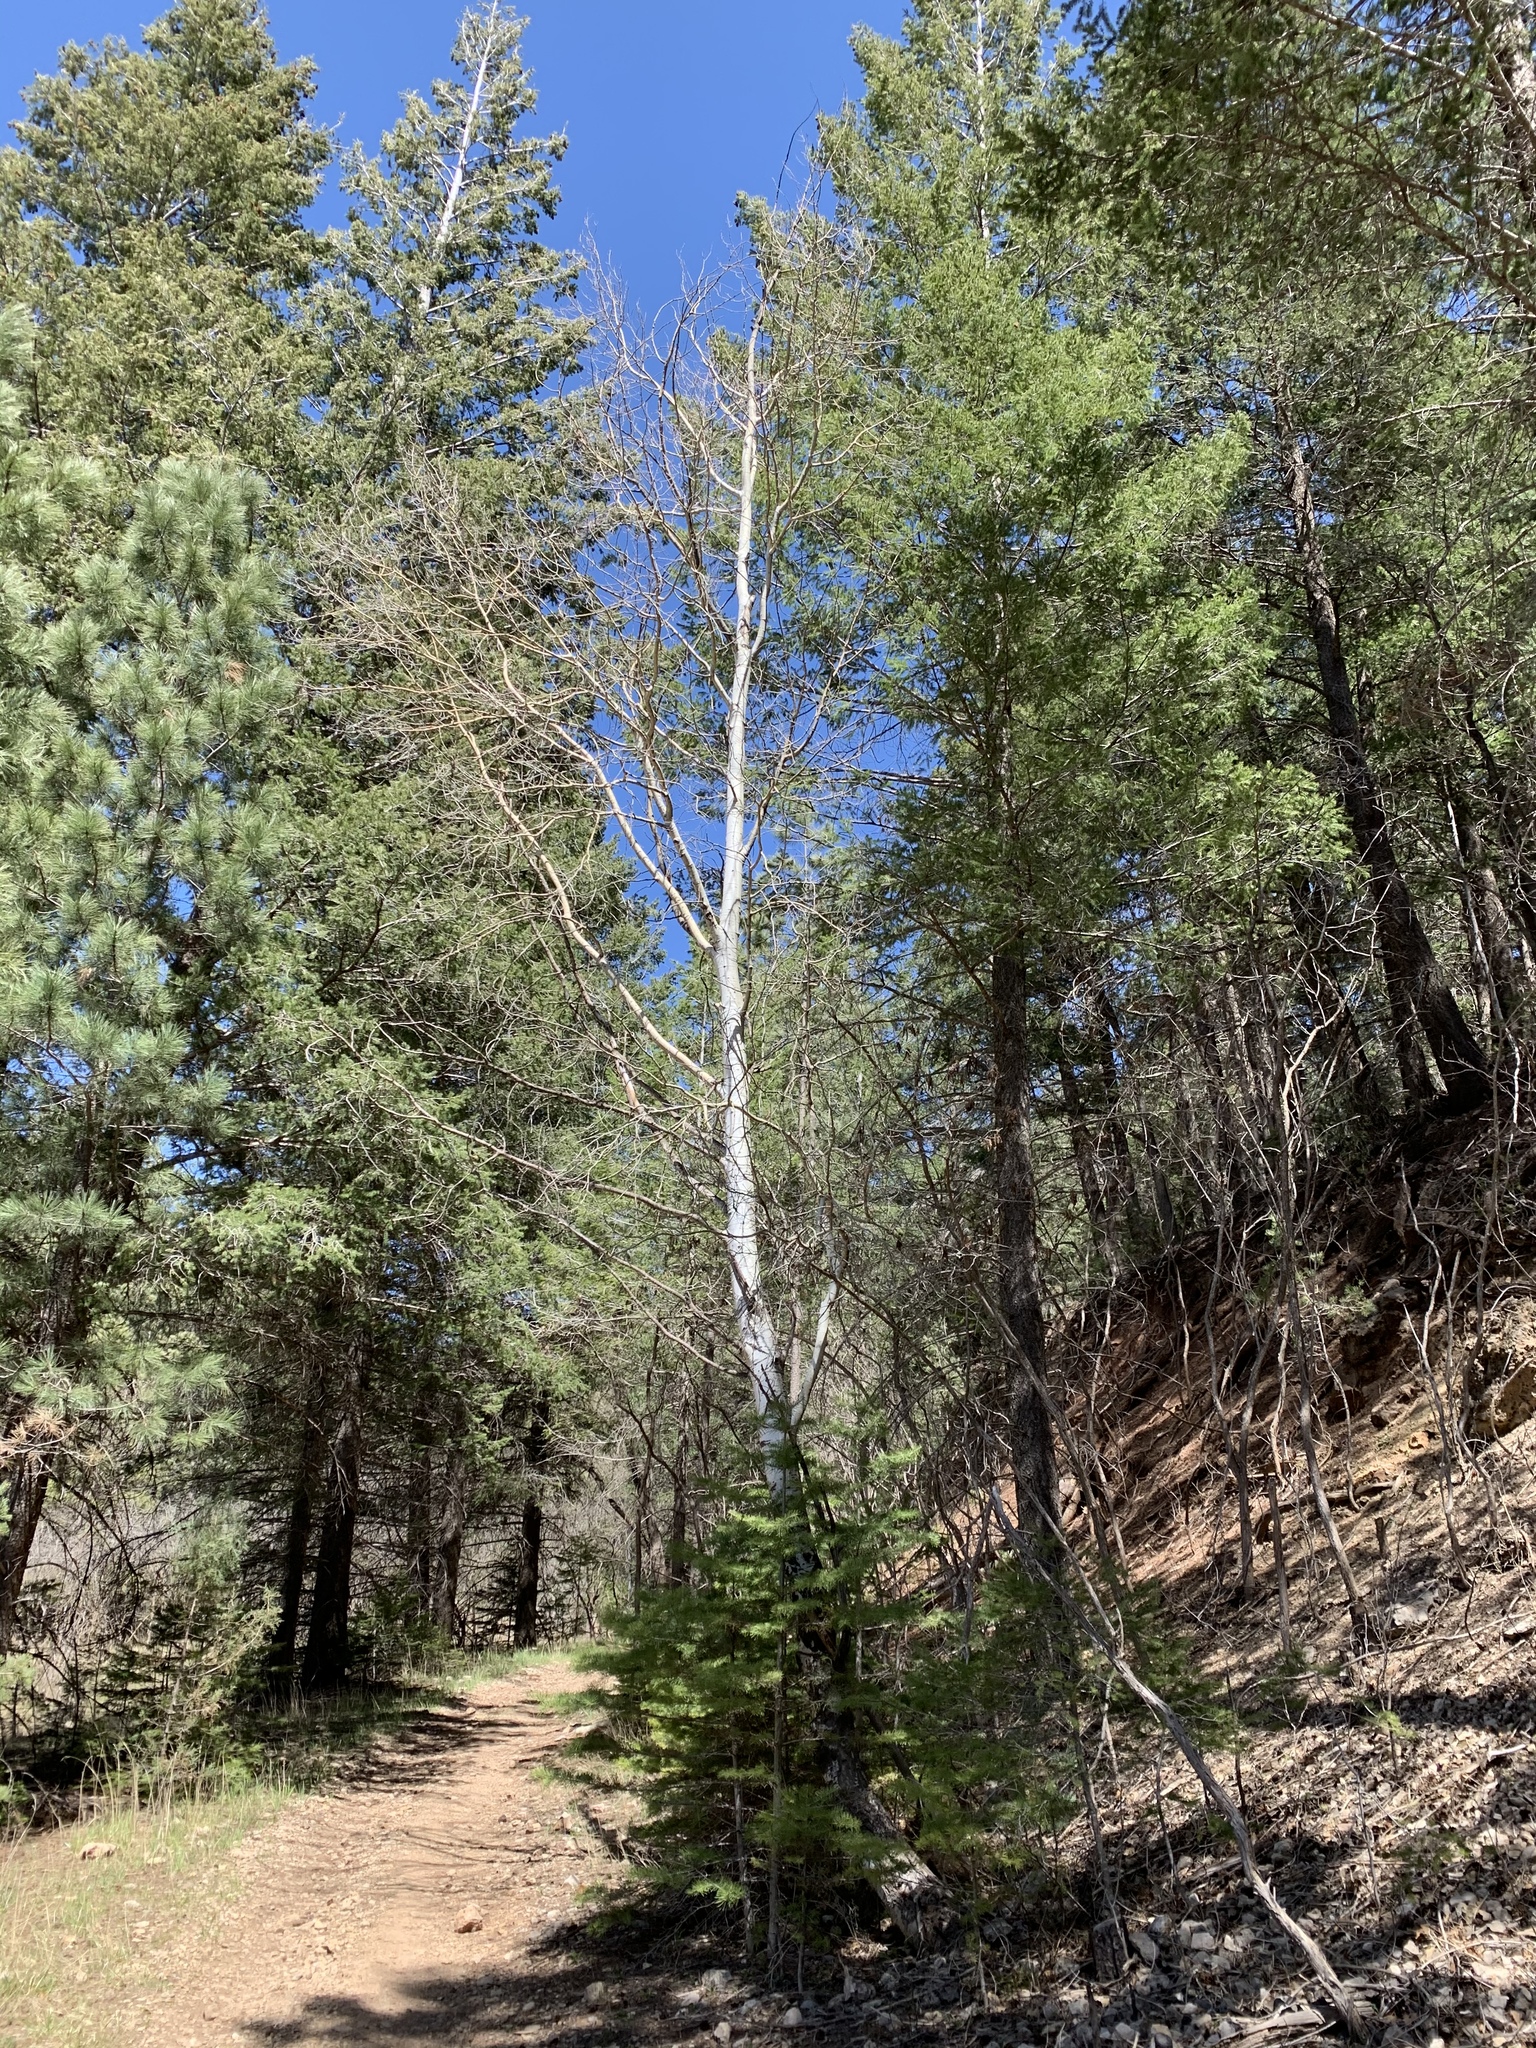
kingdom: Plantae
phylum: Tracheophyta
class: Magnoliopsida
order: Malpighiales
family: Salicaceae
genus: Populus
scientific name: Populus tremuloides
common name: Quaking aspen
